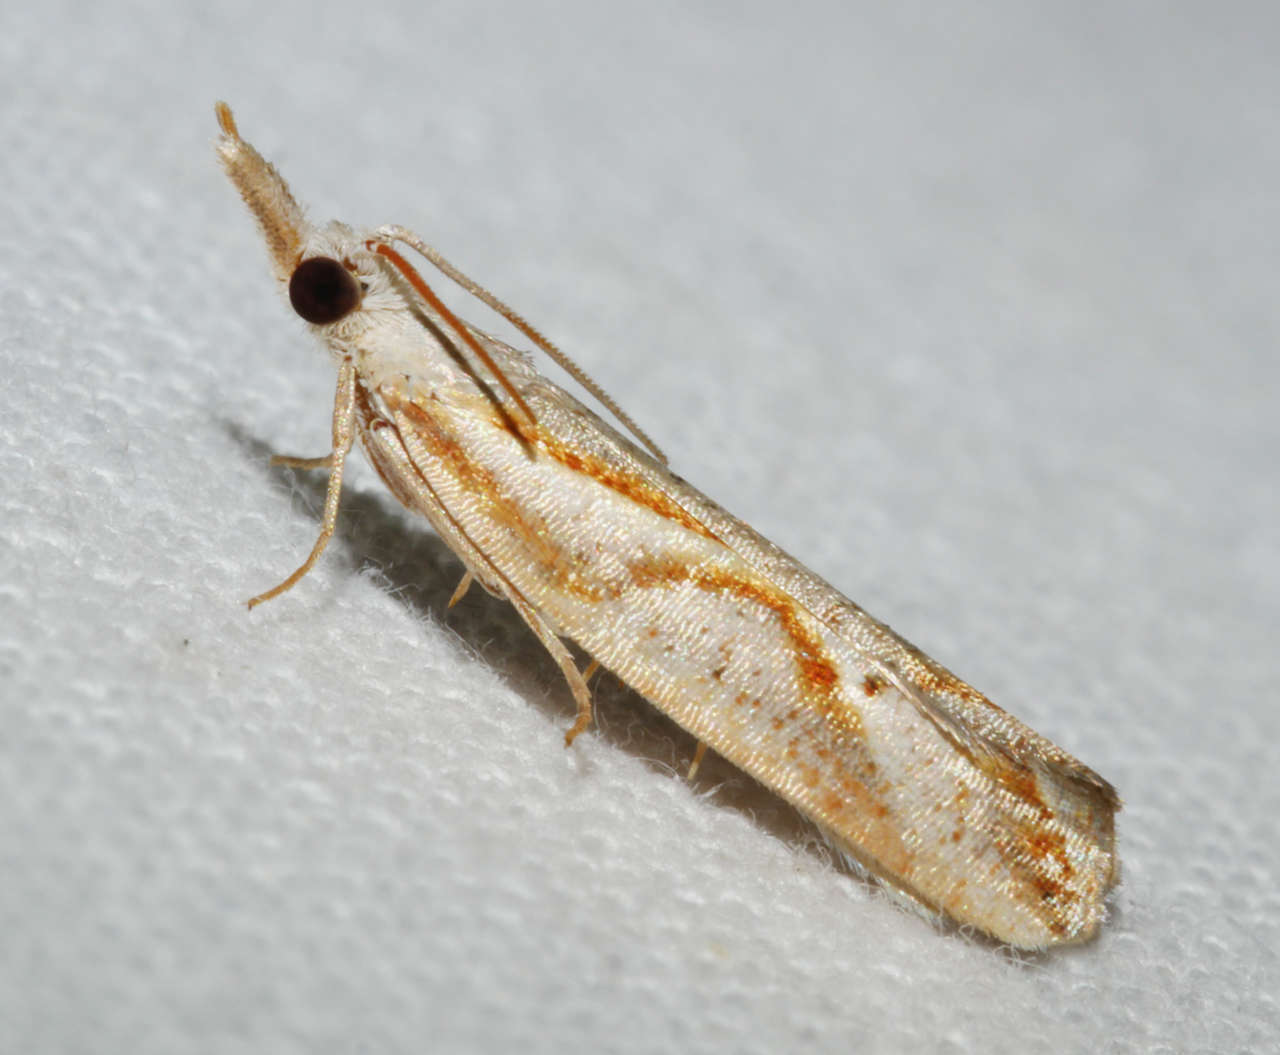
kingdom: Animalia
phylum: Arthropoda
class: Insecta
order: Lepidoptera
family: Tortricidae
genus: Arotrophora
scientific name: Arotrophora arcuatalis
